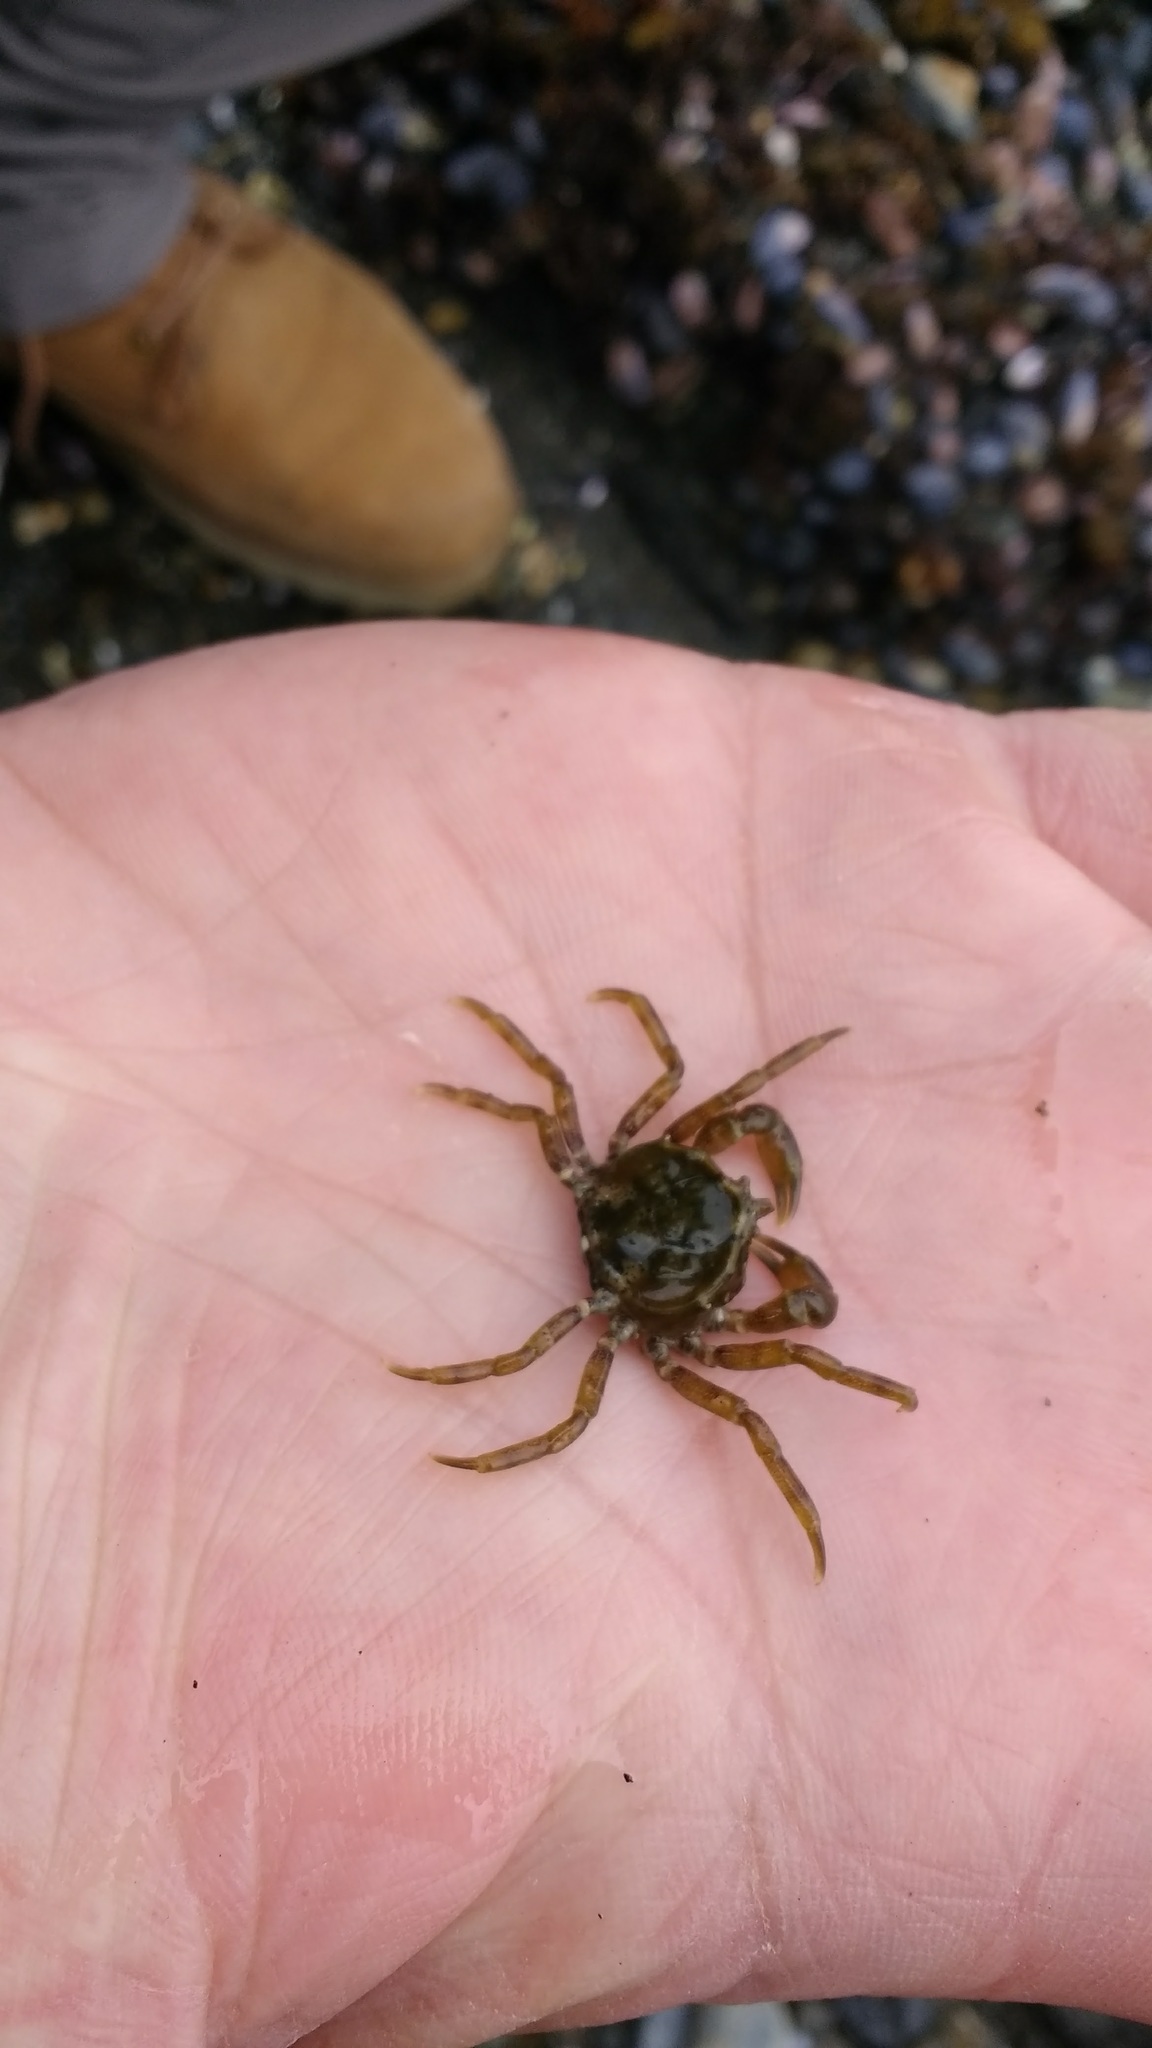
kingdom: Animalia
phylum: Arthropoda
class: Malacostraca
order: Decapoda
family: Hymenosomatidae
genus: Halicarcinus
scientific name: Halicarcinus planatus
